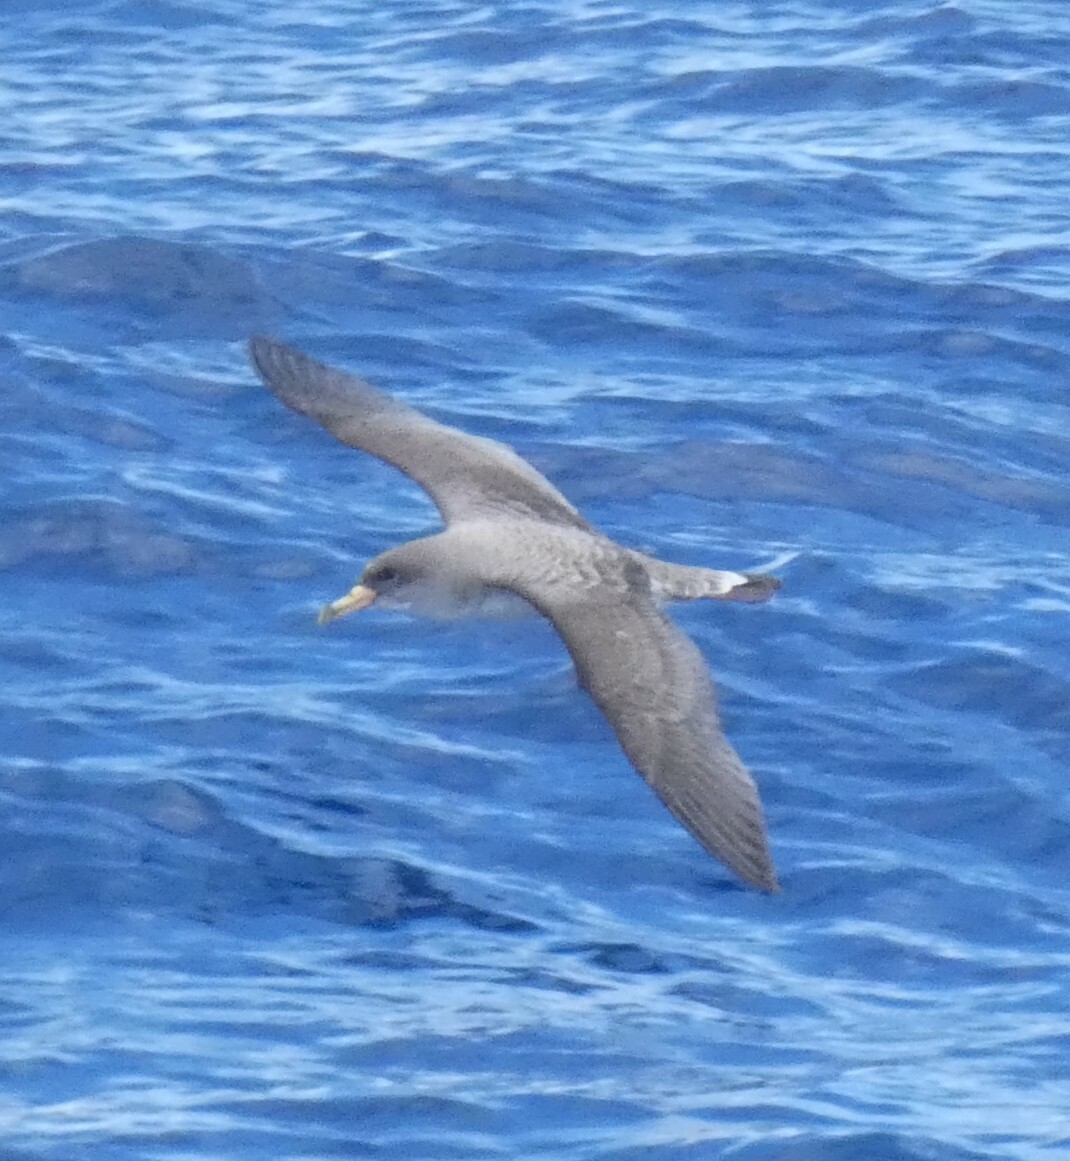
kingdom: Animalia
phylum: Chordata
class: Aves
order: Procellariiformes
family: Procellariidae
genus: Calonectris
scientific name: Calonectris diomedea
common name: Cory's shearwater
